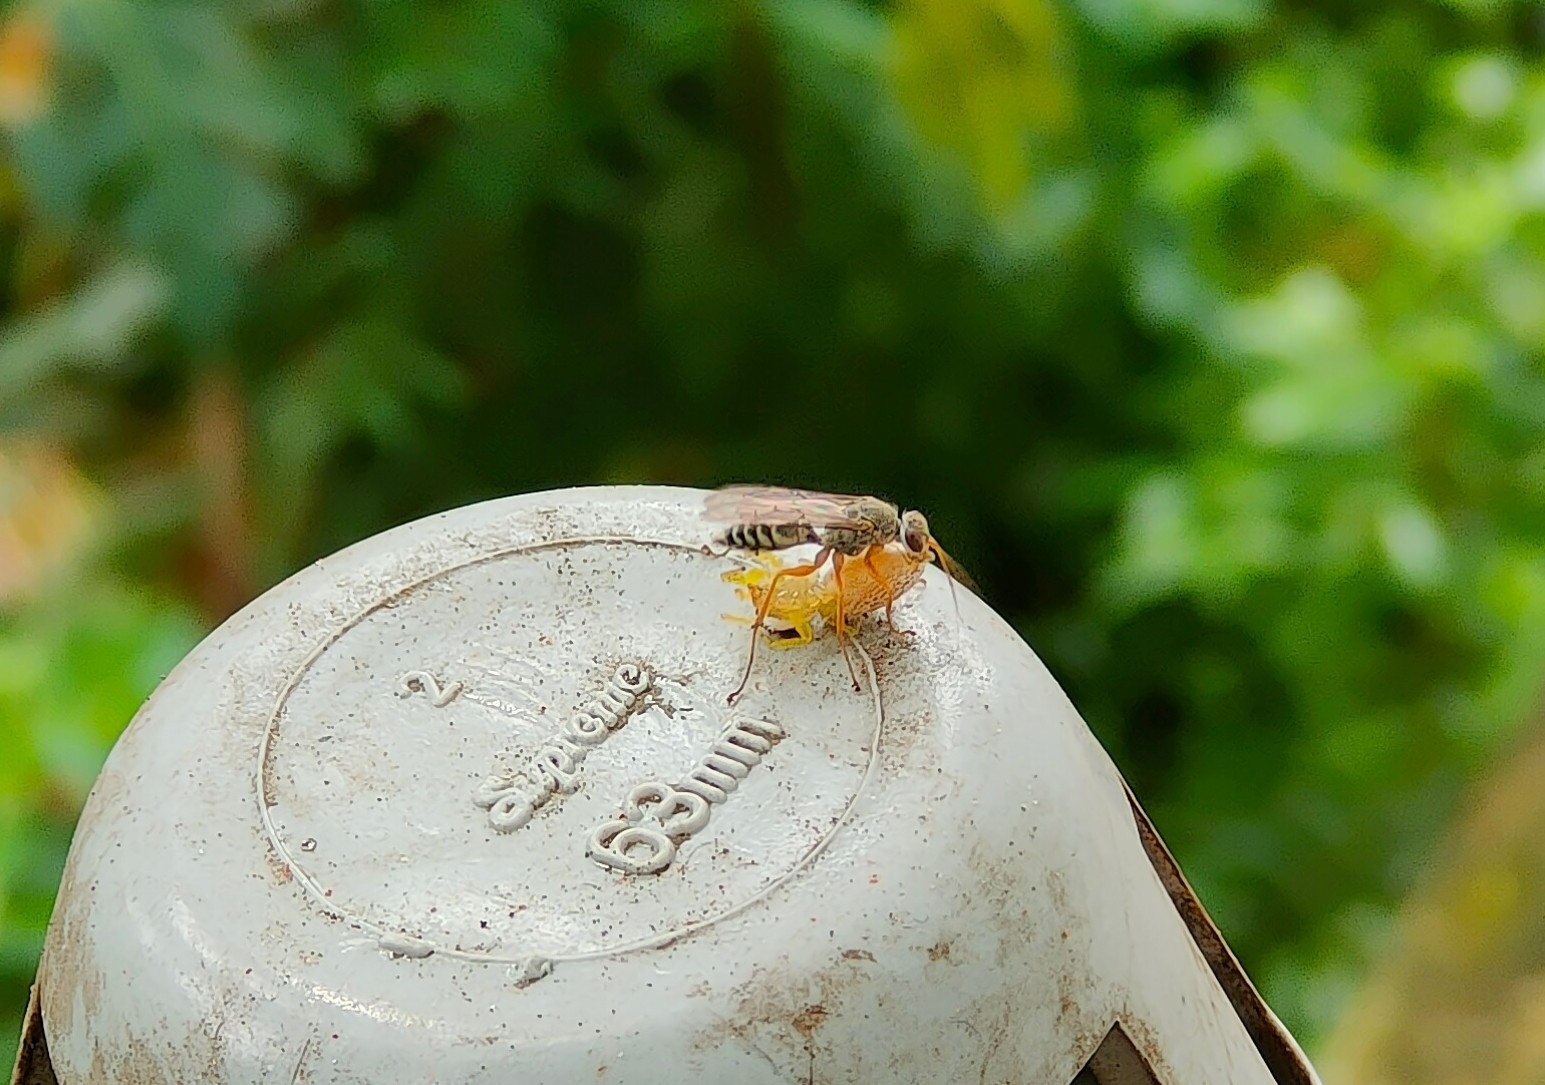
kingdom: Animalia
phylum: Arthropoda
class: Insecta
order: Hymenoptera
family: Pompilidae
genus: Machaerothrix
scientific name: Machaerothrix salticidus
